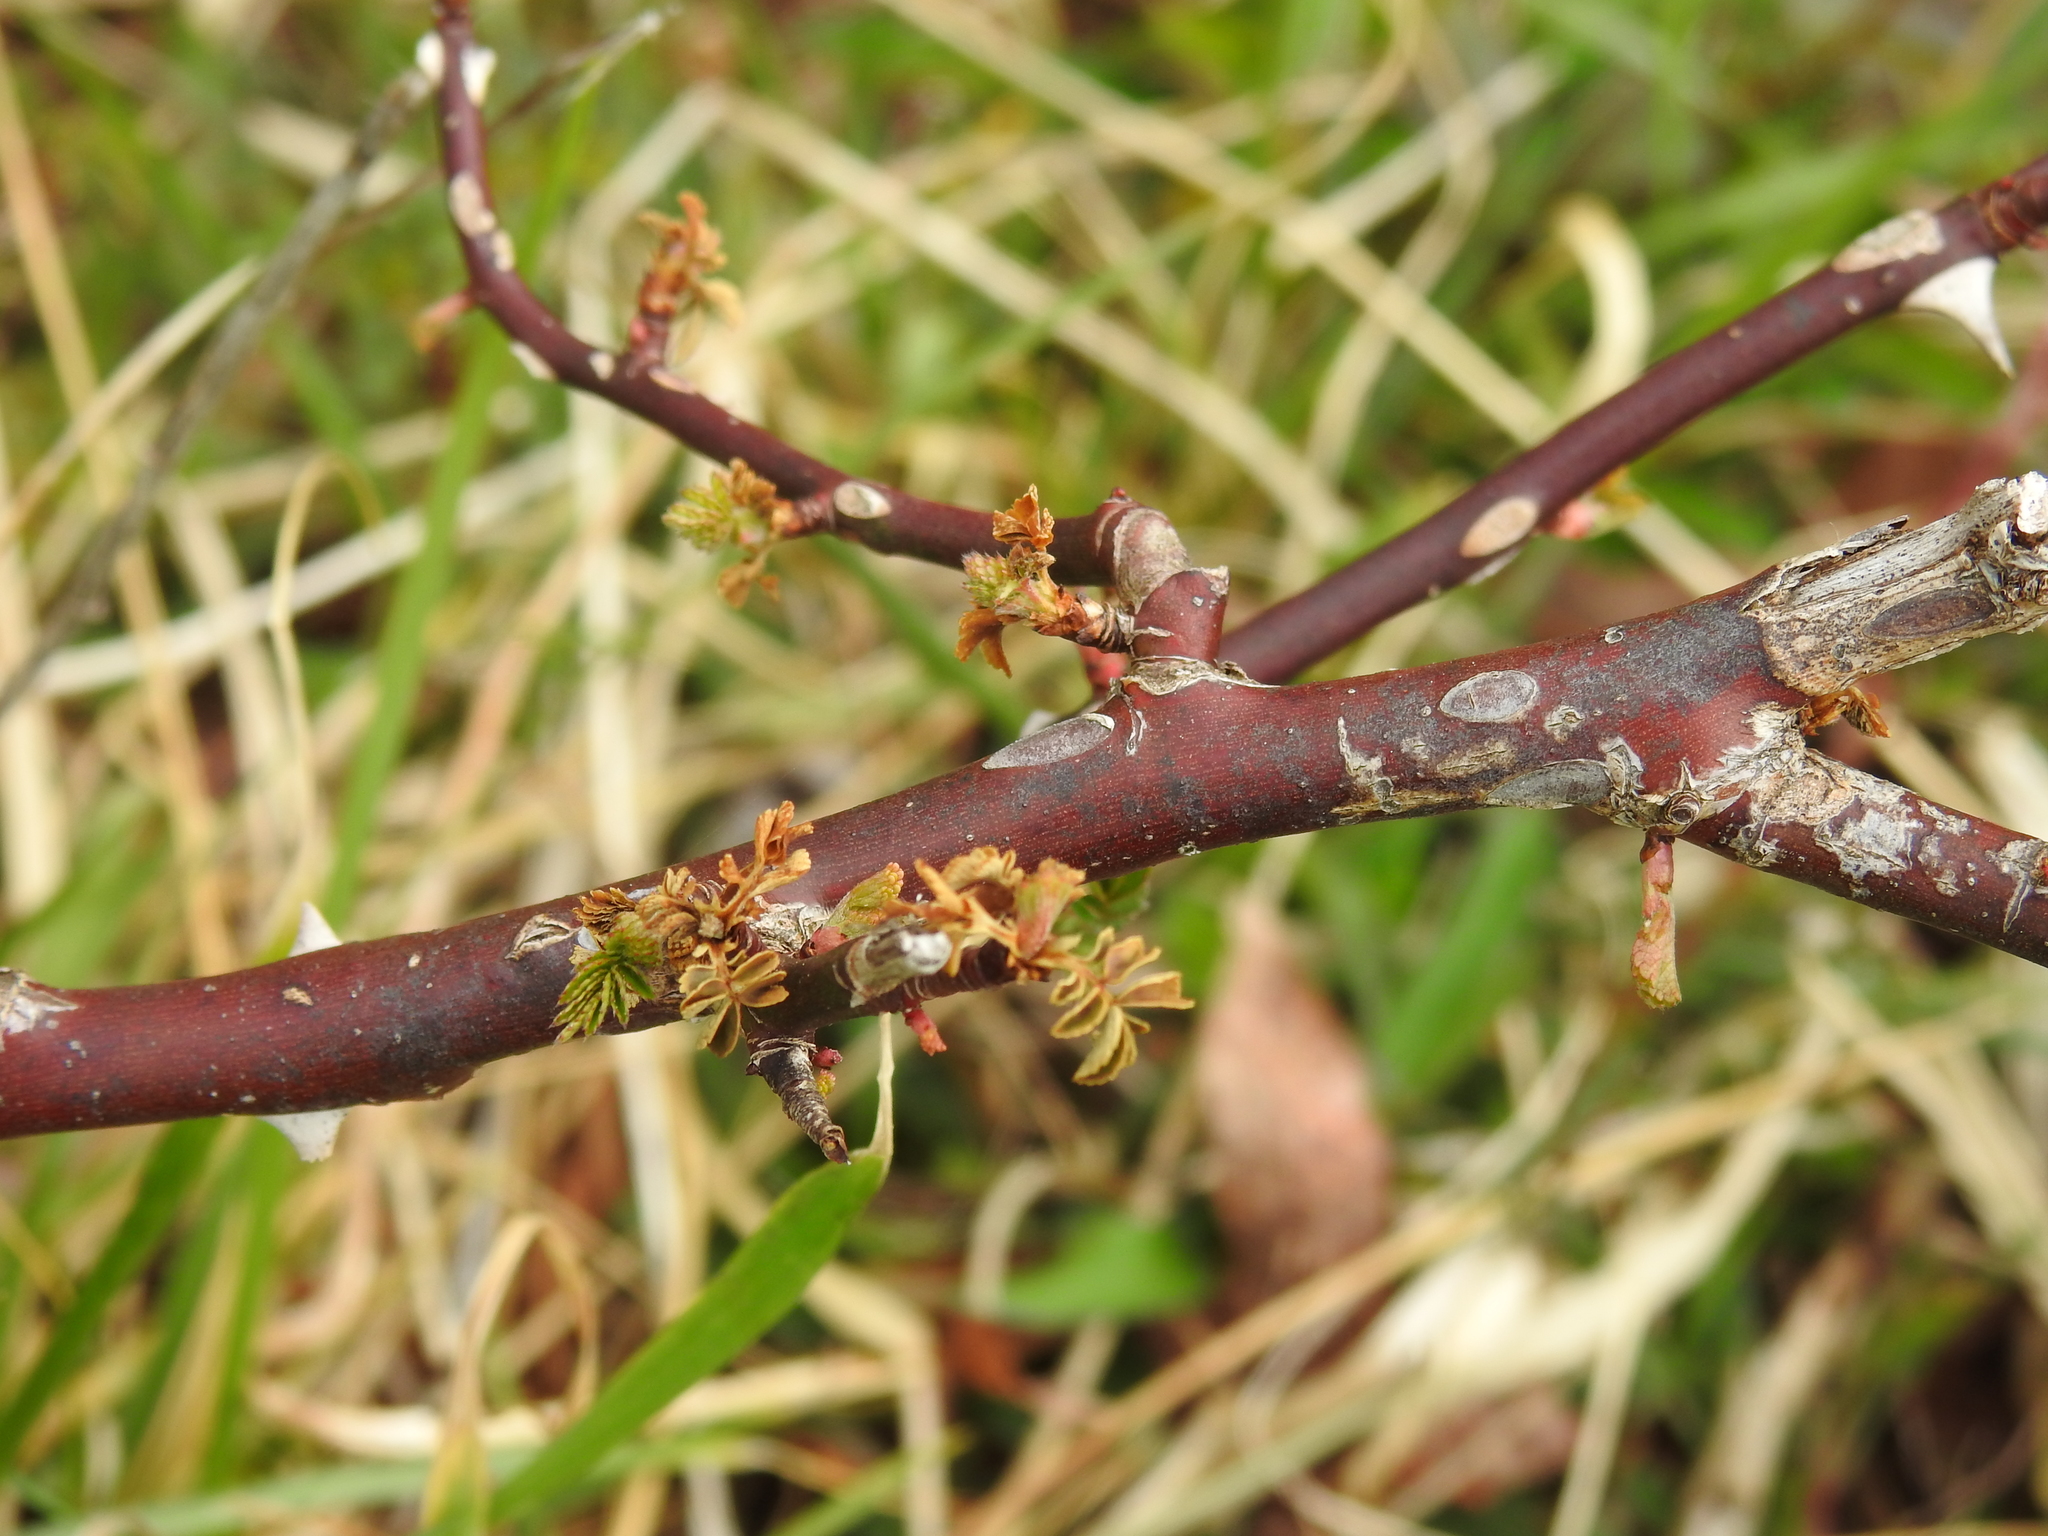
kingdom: Plantae
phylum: Tracheophyta
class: Magnoliopsida
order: Rosales
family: Rosaceae
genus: Rosa
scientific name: Rosa multiflora
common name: Multiflora rose
